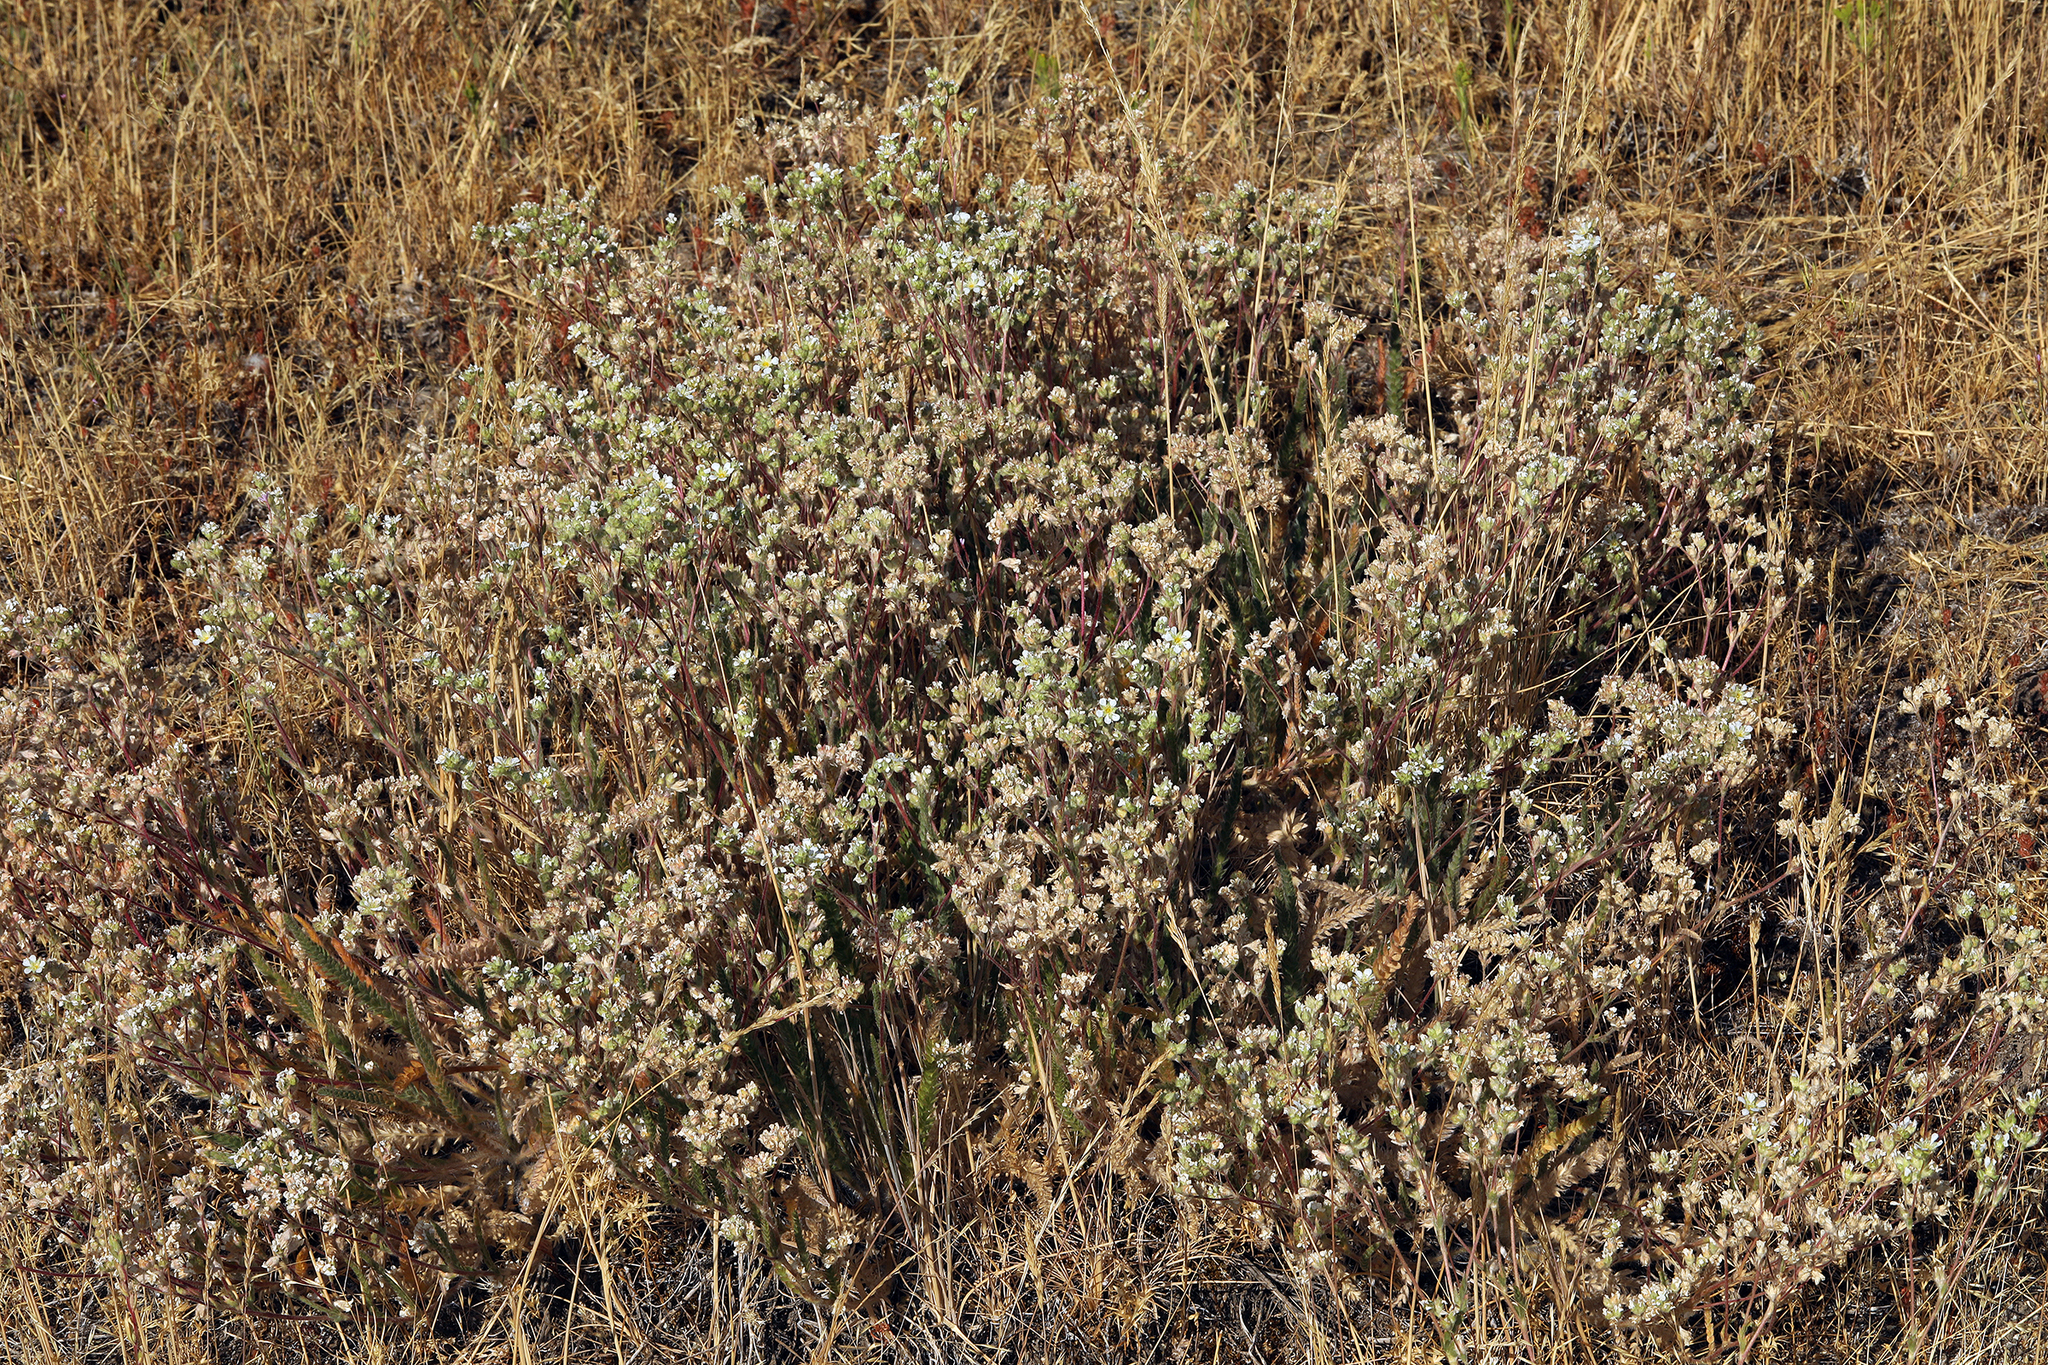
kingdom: Plantae
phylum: Tracheophyta
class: Magnoliopsida
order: Rosales
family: Rosaceae
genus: Potentilla
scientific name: Potentilla sericoleuca
